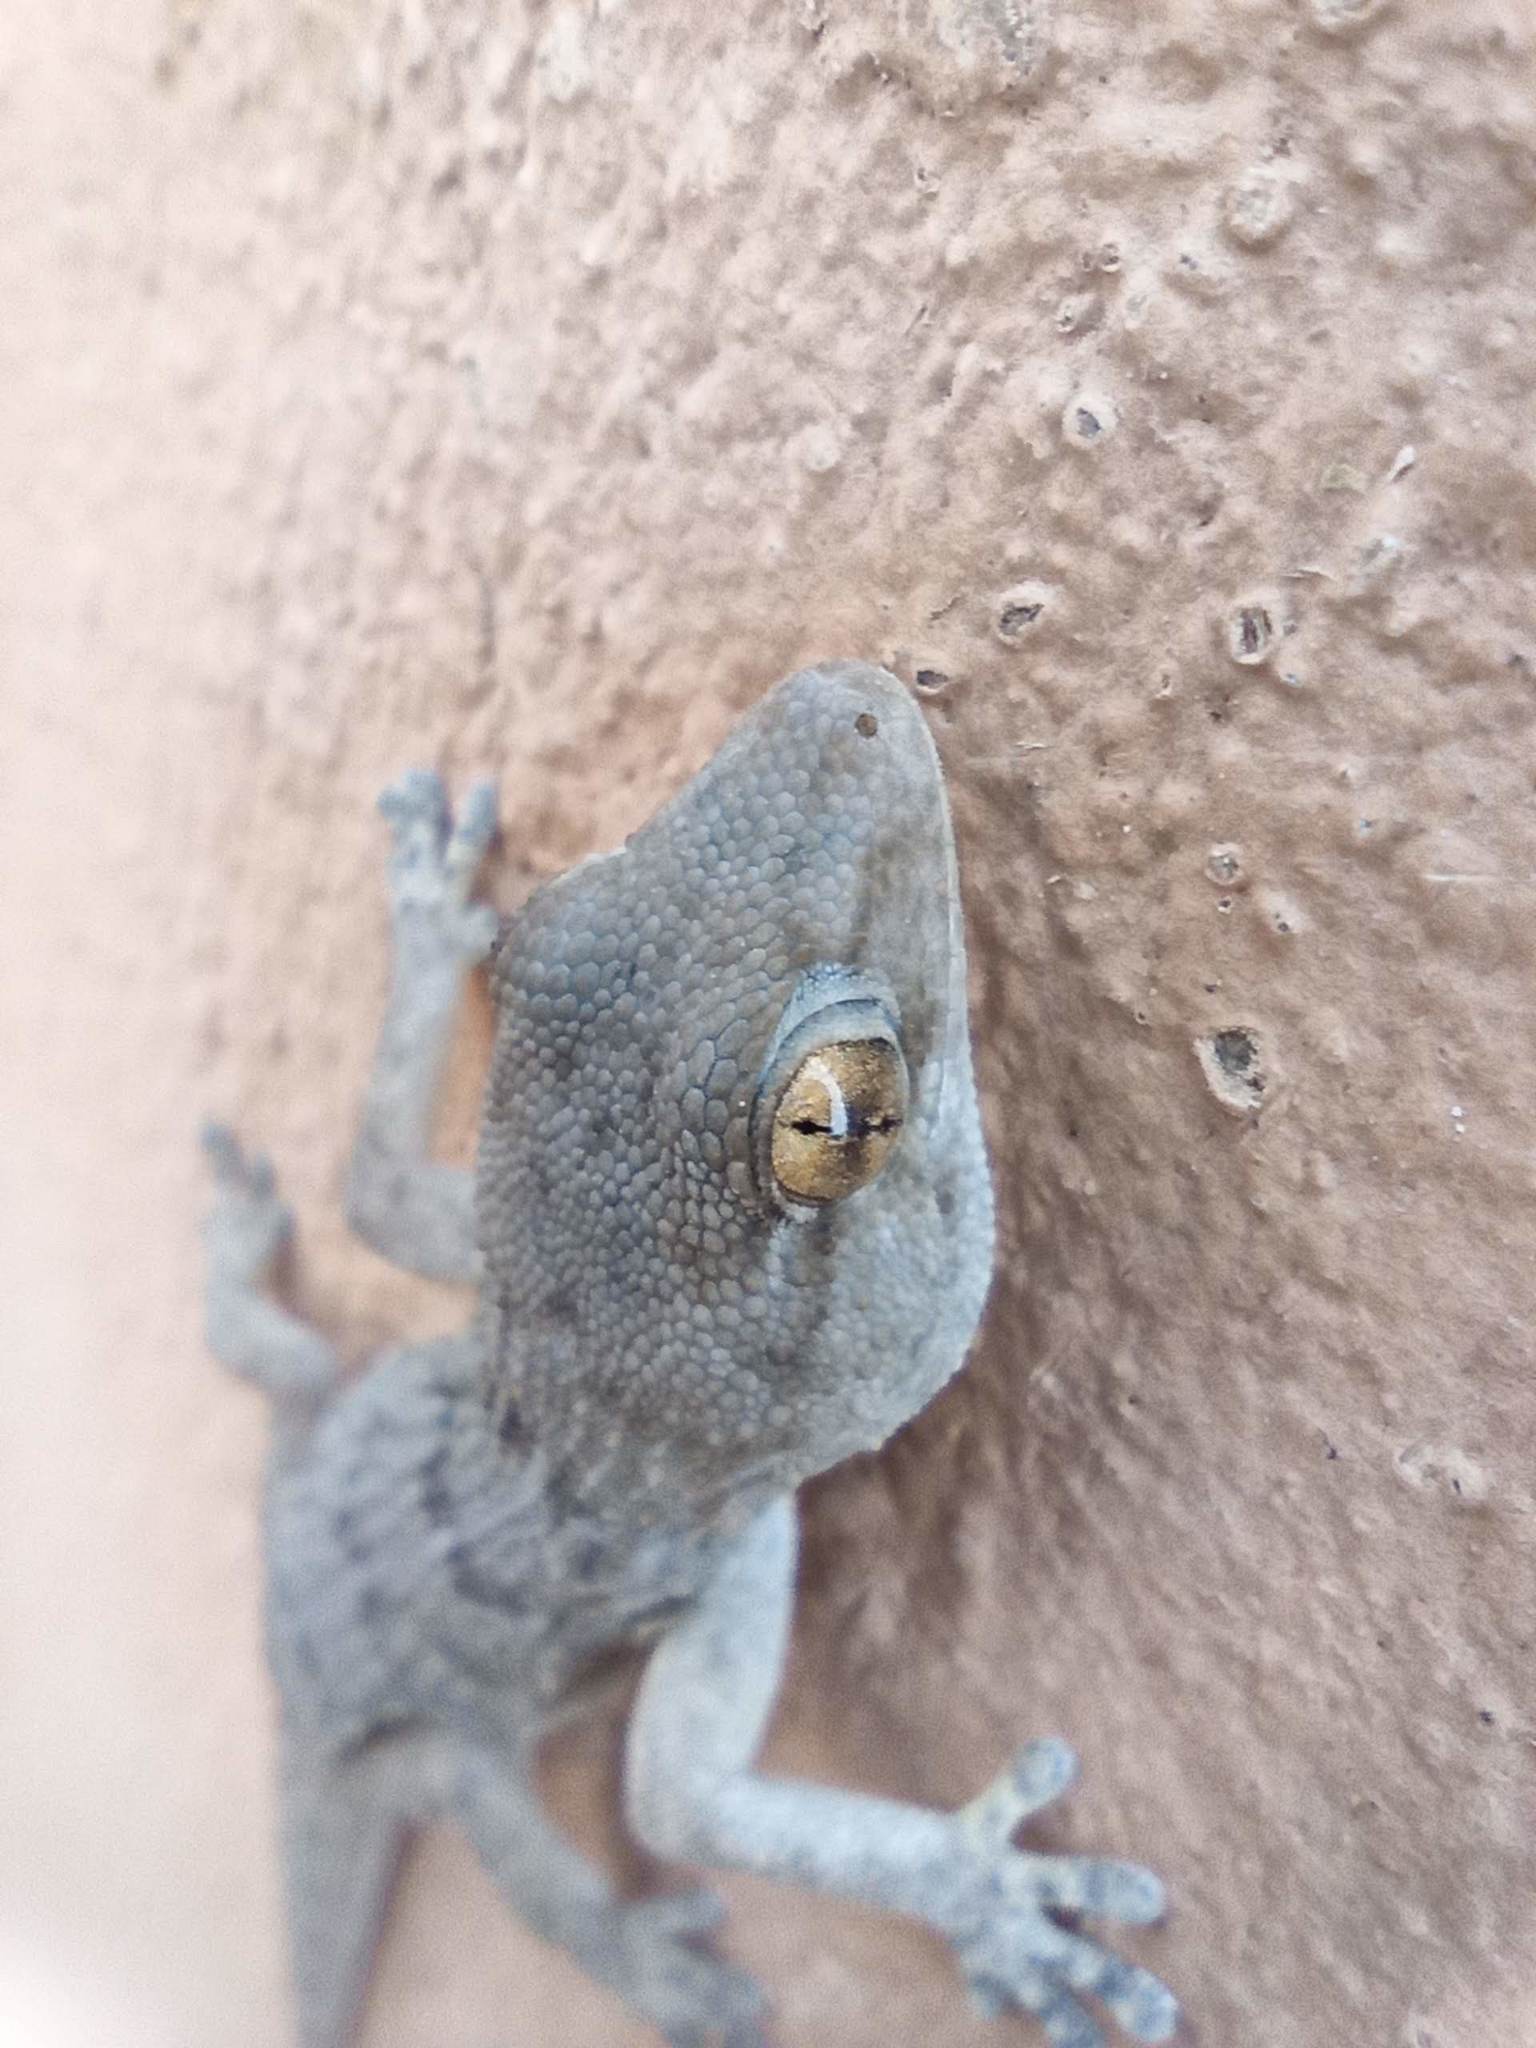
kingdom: Animalia
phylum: Chordata
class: Squamata
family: Phyllodactylidae
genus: Tarentola
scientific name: Tarentola angustimentalis
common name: East canary gecko
